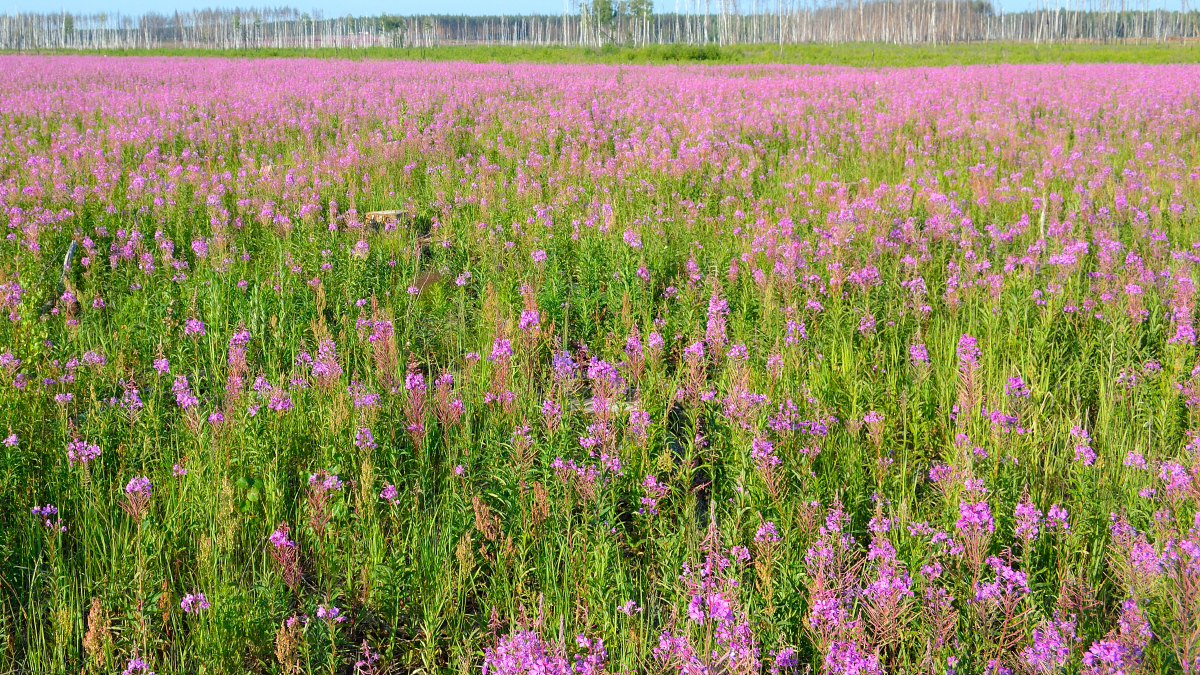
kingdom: Plantae
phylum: Tracheophyta
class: Magnoliopsida
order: Myrtales
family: Onagraceae
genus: Chamaenerion
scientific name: Chamaenerion angustifolium
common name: Fireweed
